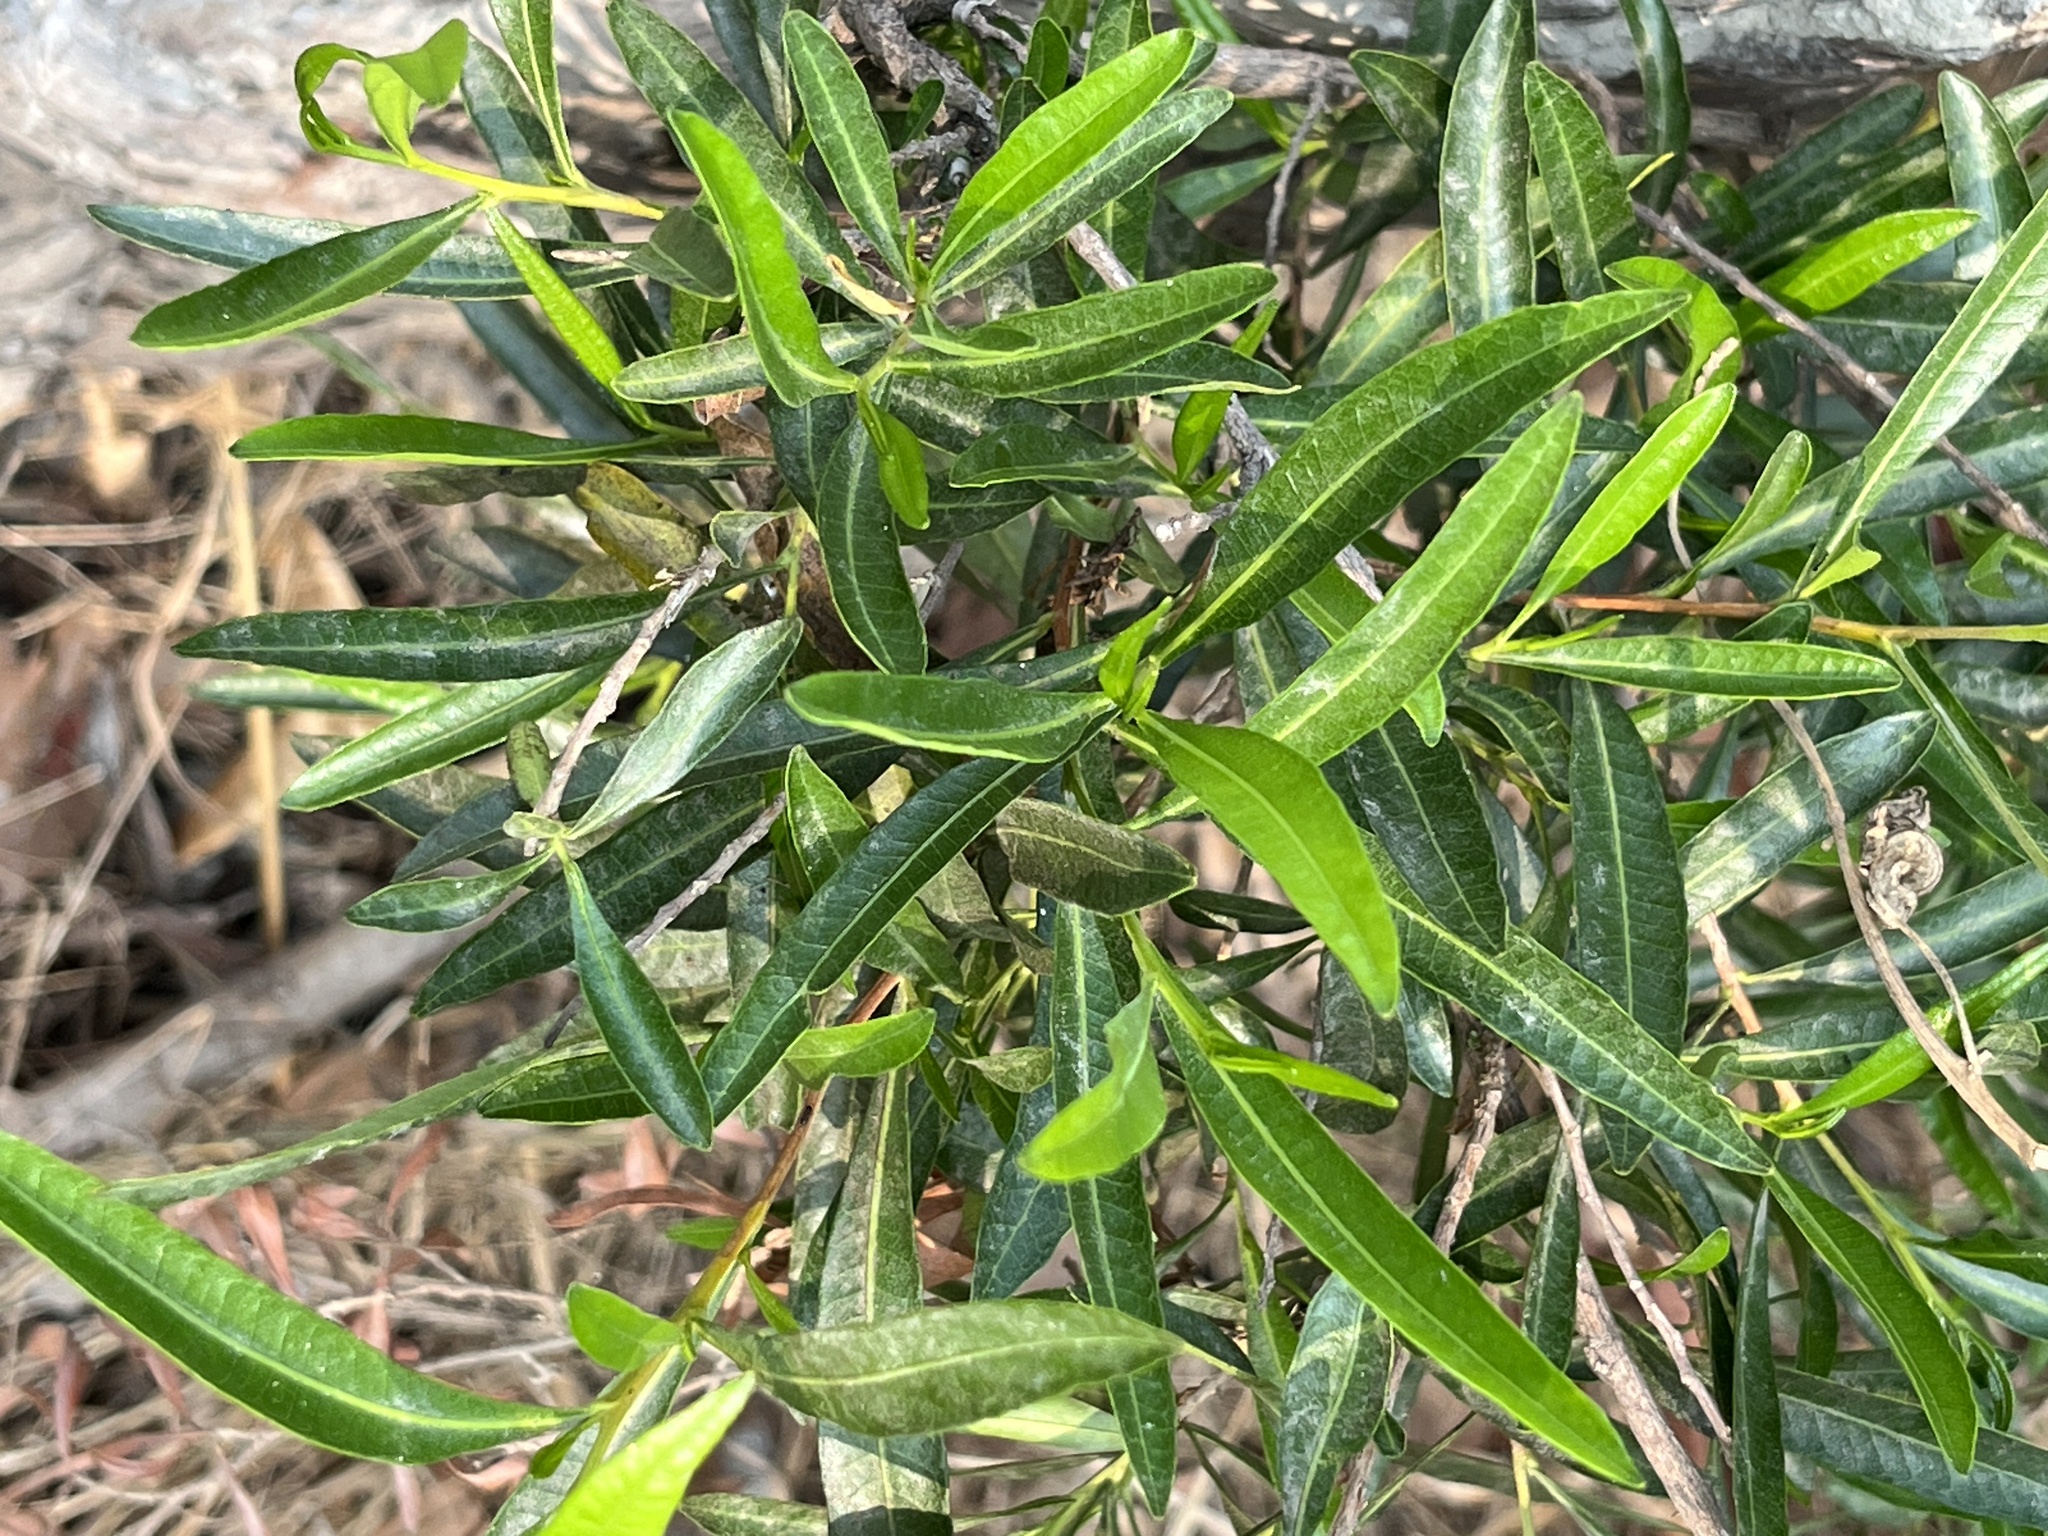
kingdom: Plantae
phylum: Tracheophyta
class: Magnoliopsida
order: Sapindales
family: Sapindaceae
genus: Dodonaea
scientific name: Dodonaea viscosa
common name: Hopbush
